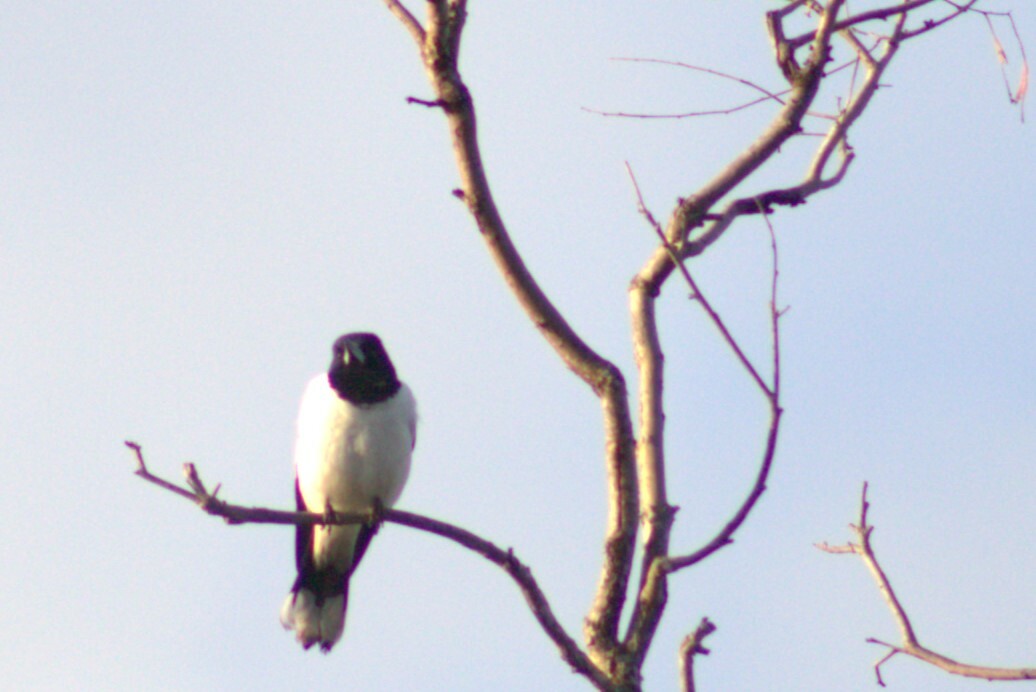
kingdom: Animalia
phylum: Chordata
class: Aves
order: Passeriformes
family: Cracticidae
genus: Cracticus
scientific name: Cracticus nigrogularis
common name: Pied butcherbird
